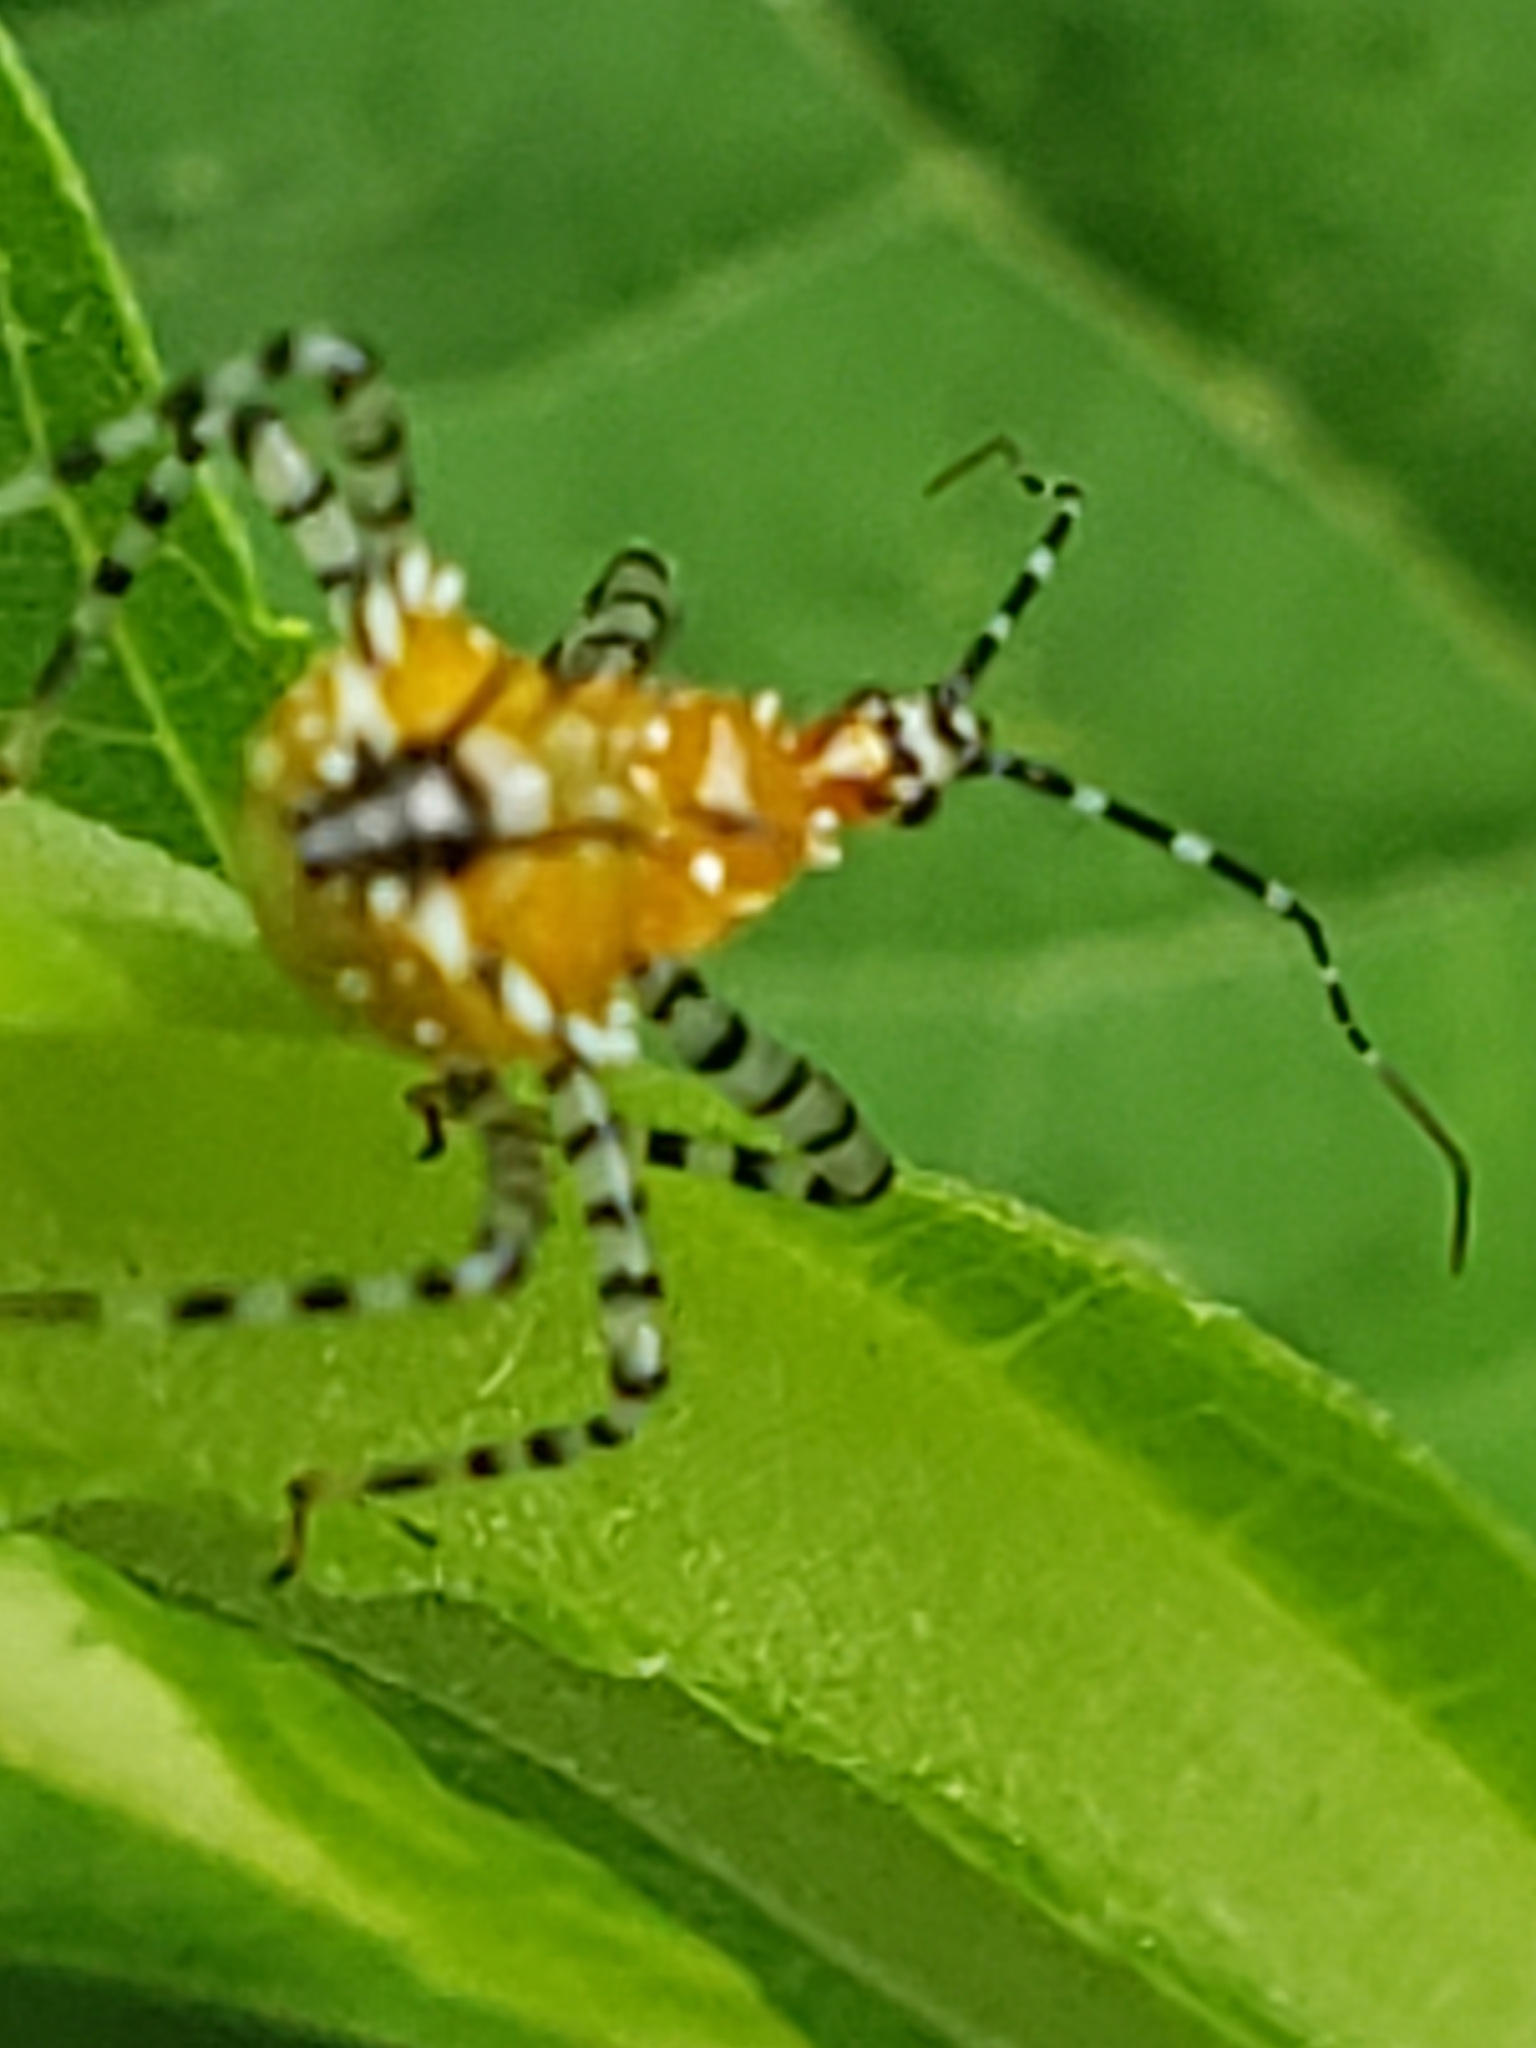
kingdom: Animalia
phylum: Arthropoda
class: Insecta
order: Hemiptera
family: Reduviidae
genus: Pselliopus
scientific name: Pselliopus cinctus
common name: Ringed assassin bug
